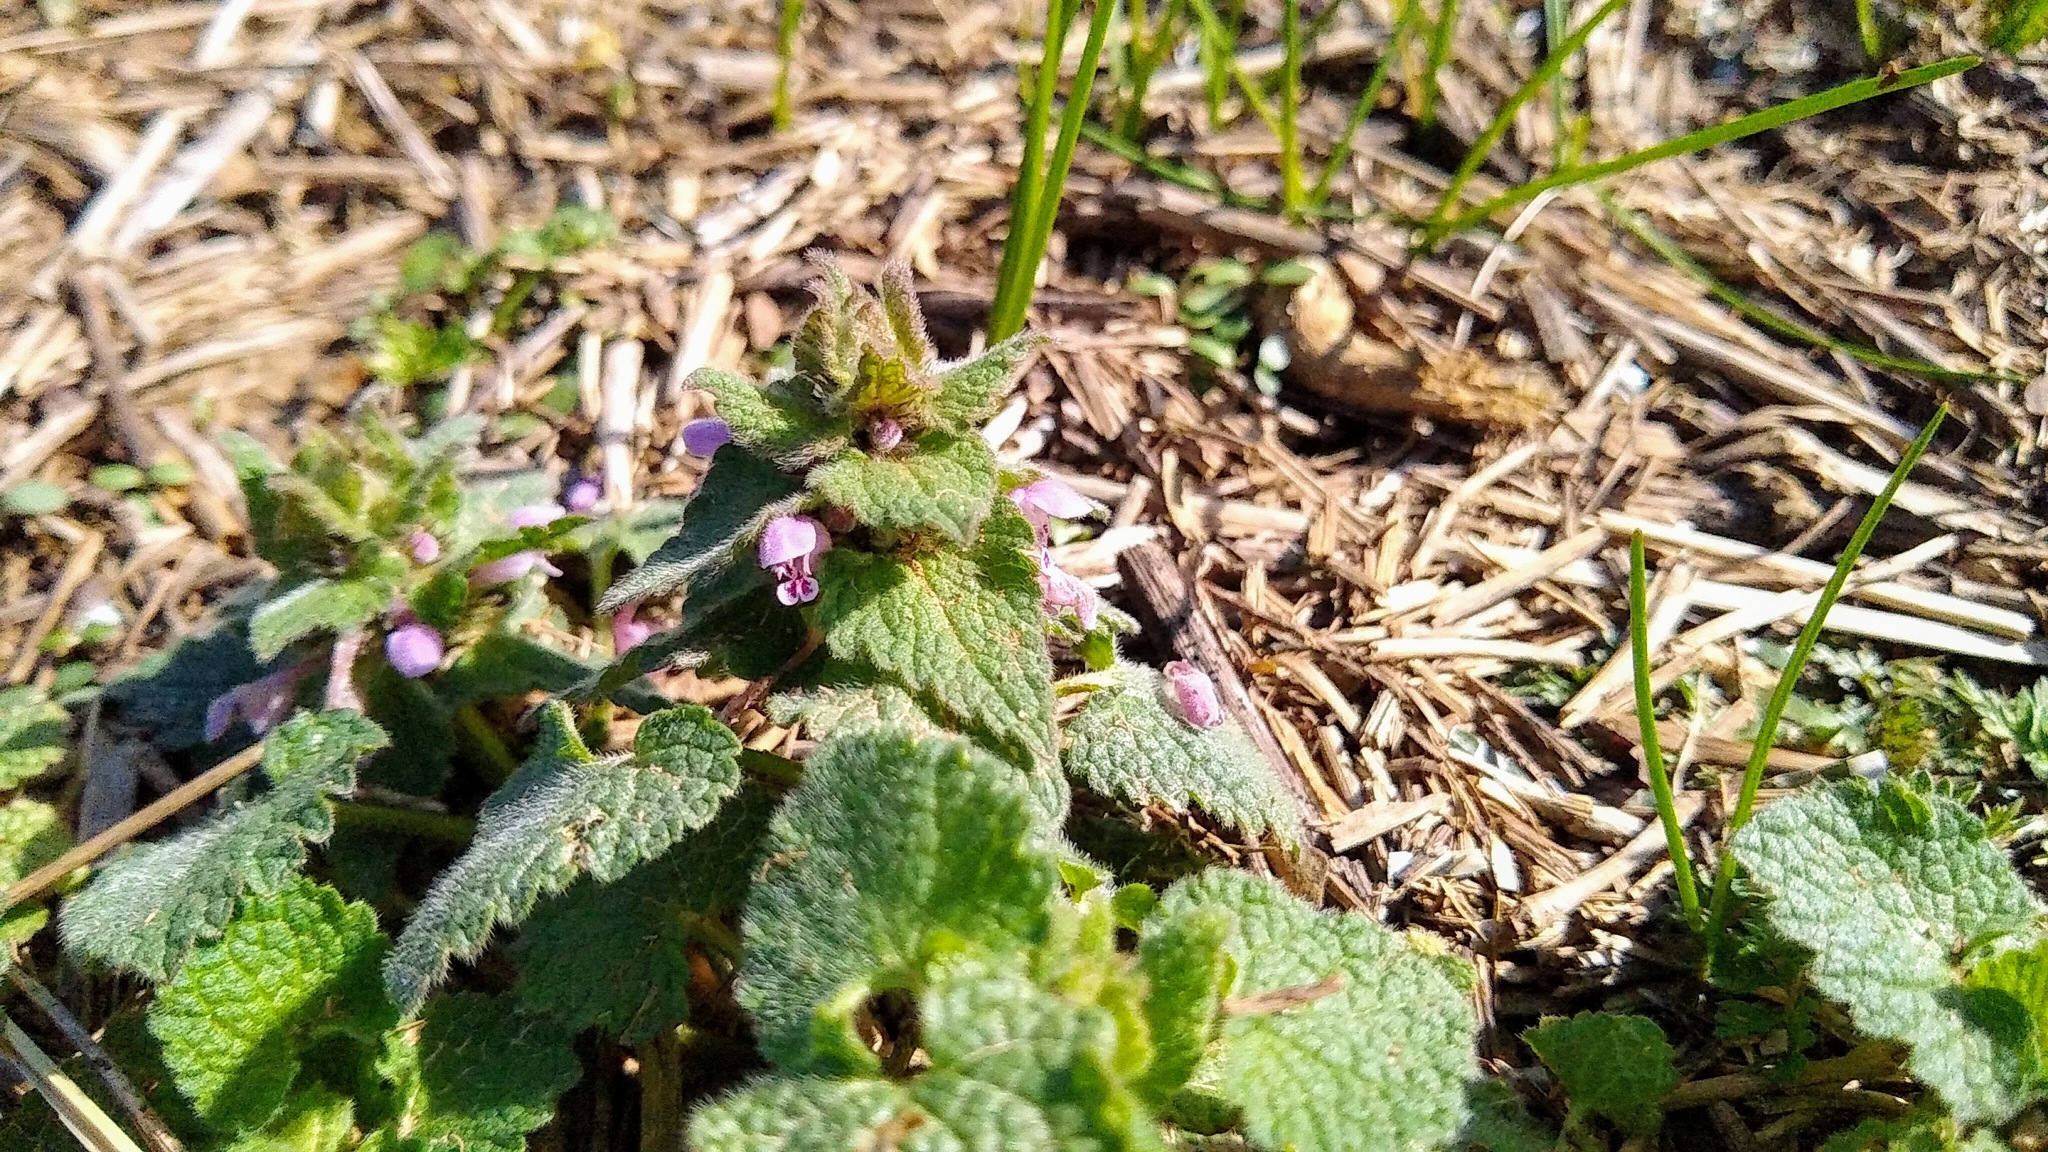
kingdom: Plantae
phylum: Tracheophyta
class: Magnoliopsida
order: Lamiales
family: Lamiaceae
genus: Lamium
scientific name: Lamium purpureum
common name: Red dead-nettle
